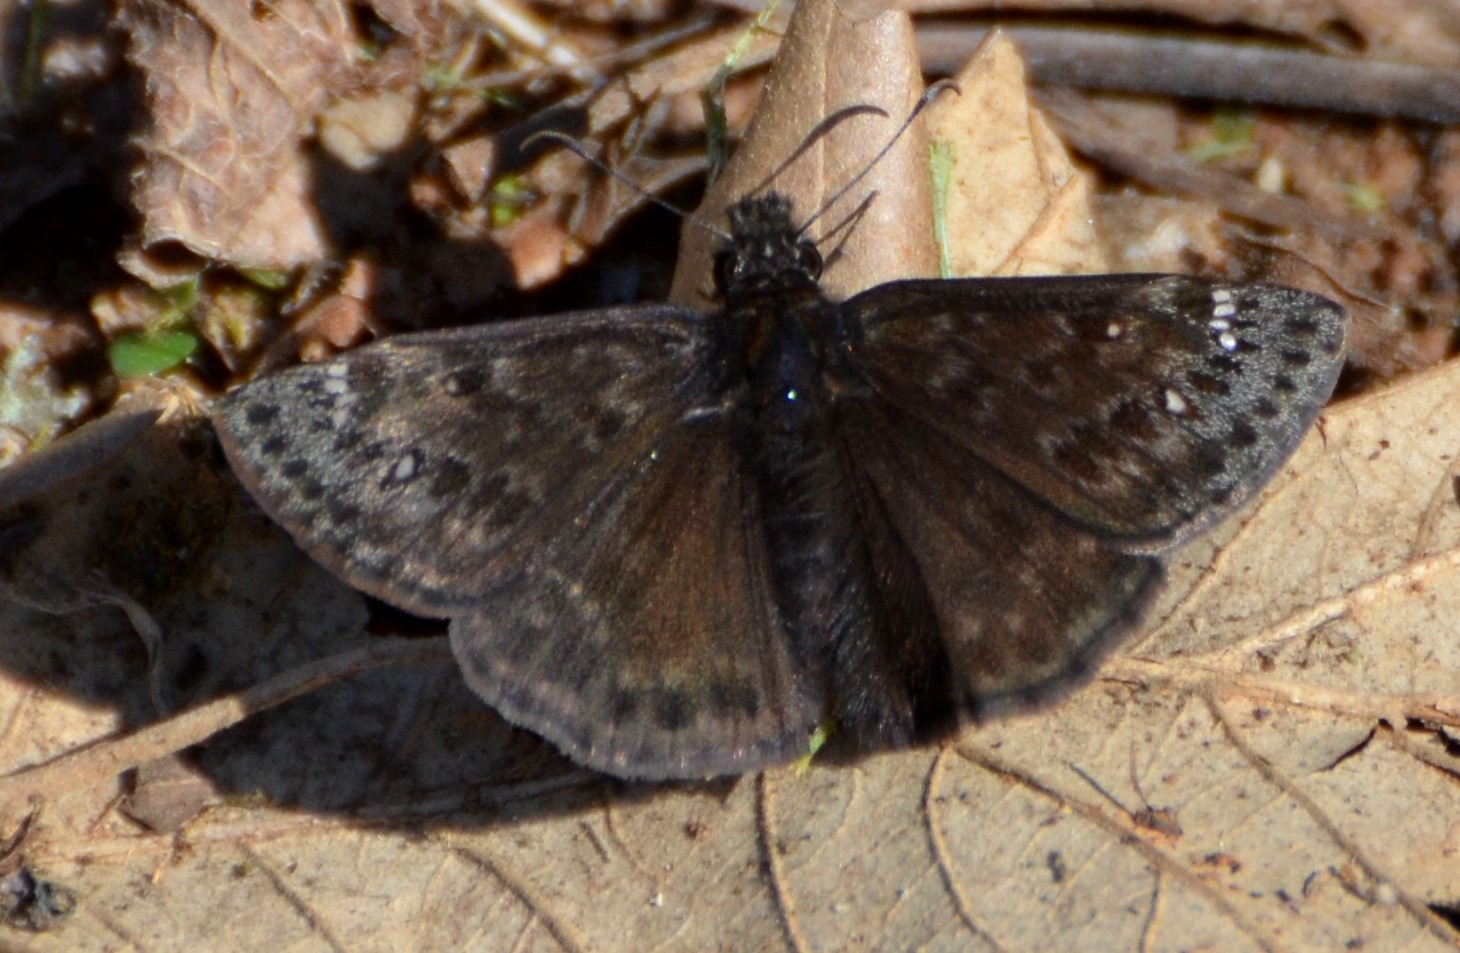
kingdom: Animalia
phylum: Arthropoda
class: Insecta
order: Lepidoptera
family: Hesperiidae
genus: Erynnis
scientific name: Erynnis juvenalis
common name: Juvenal's duskywing
